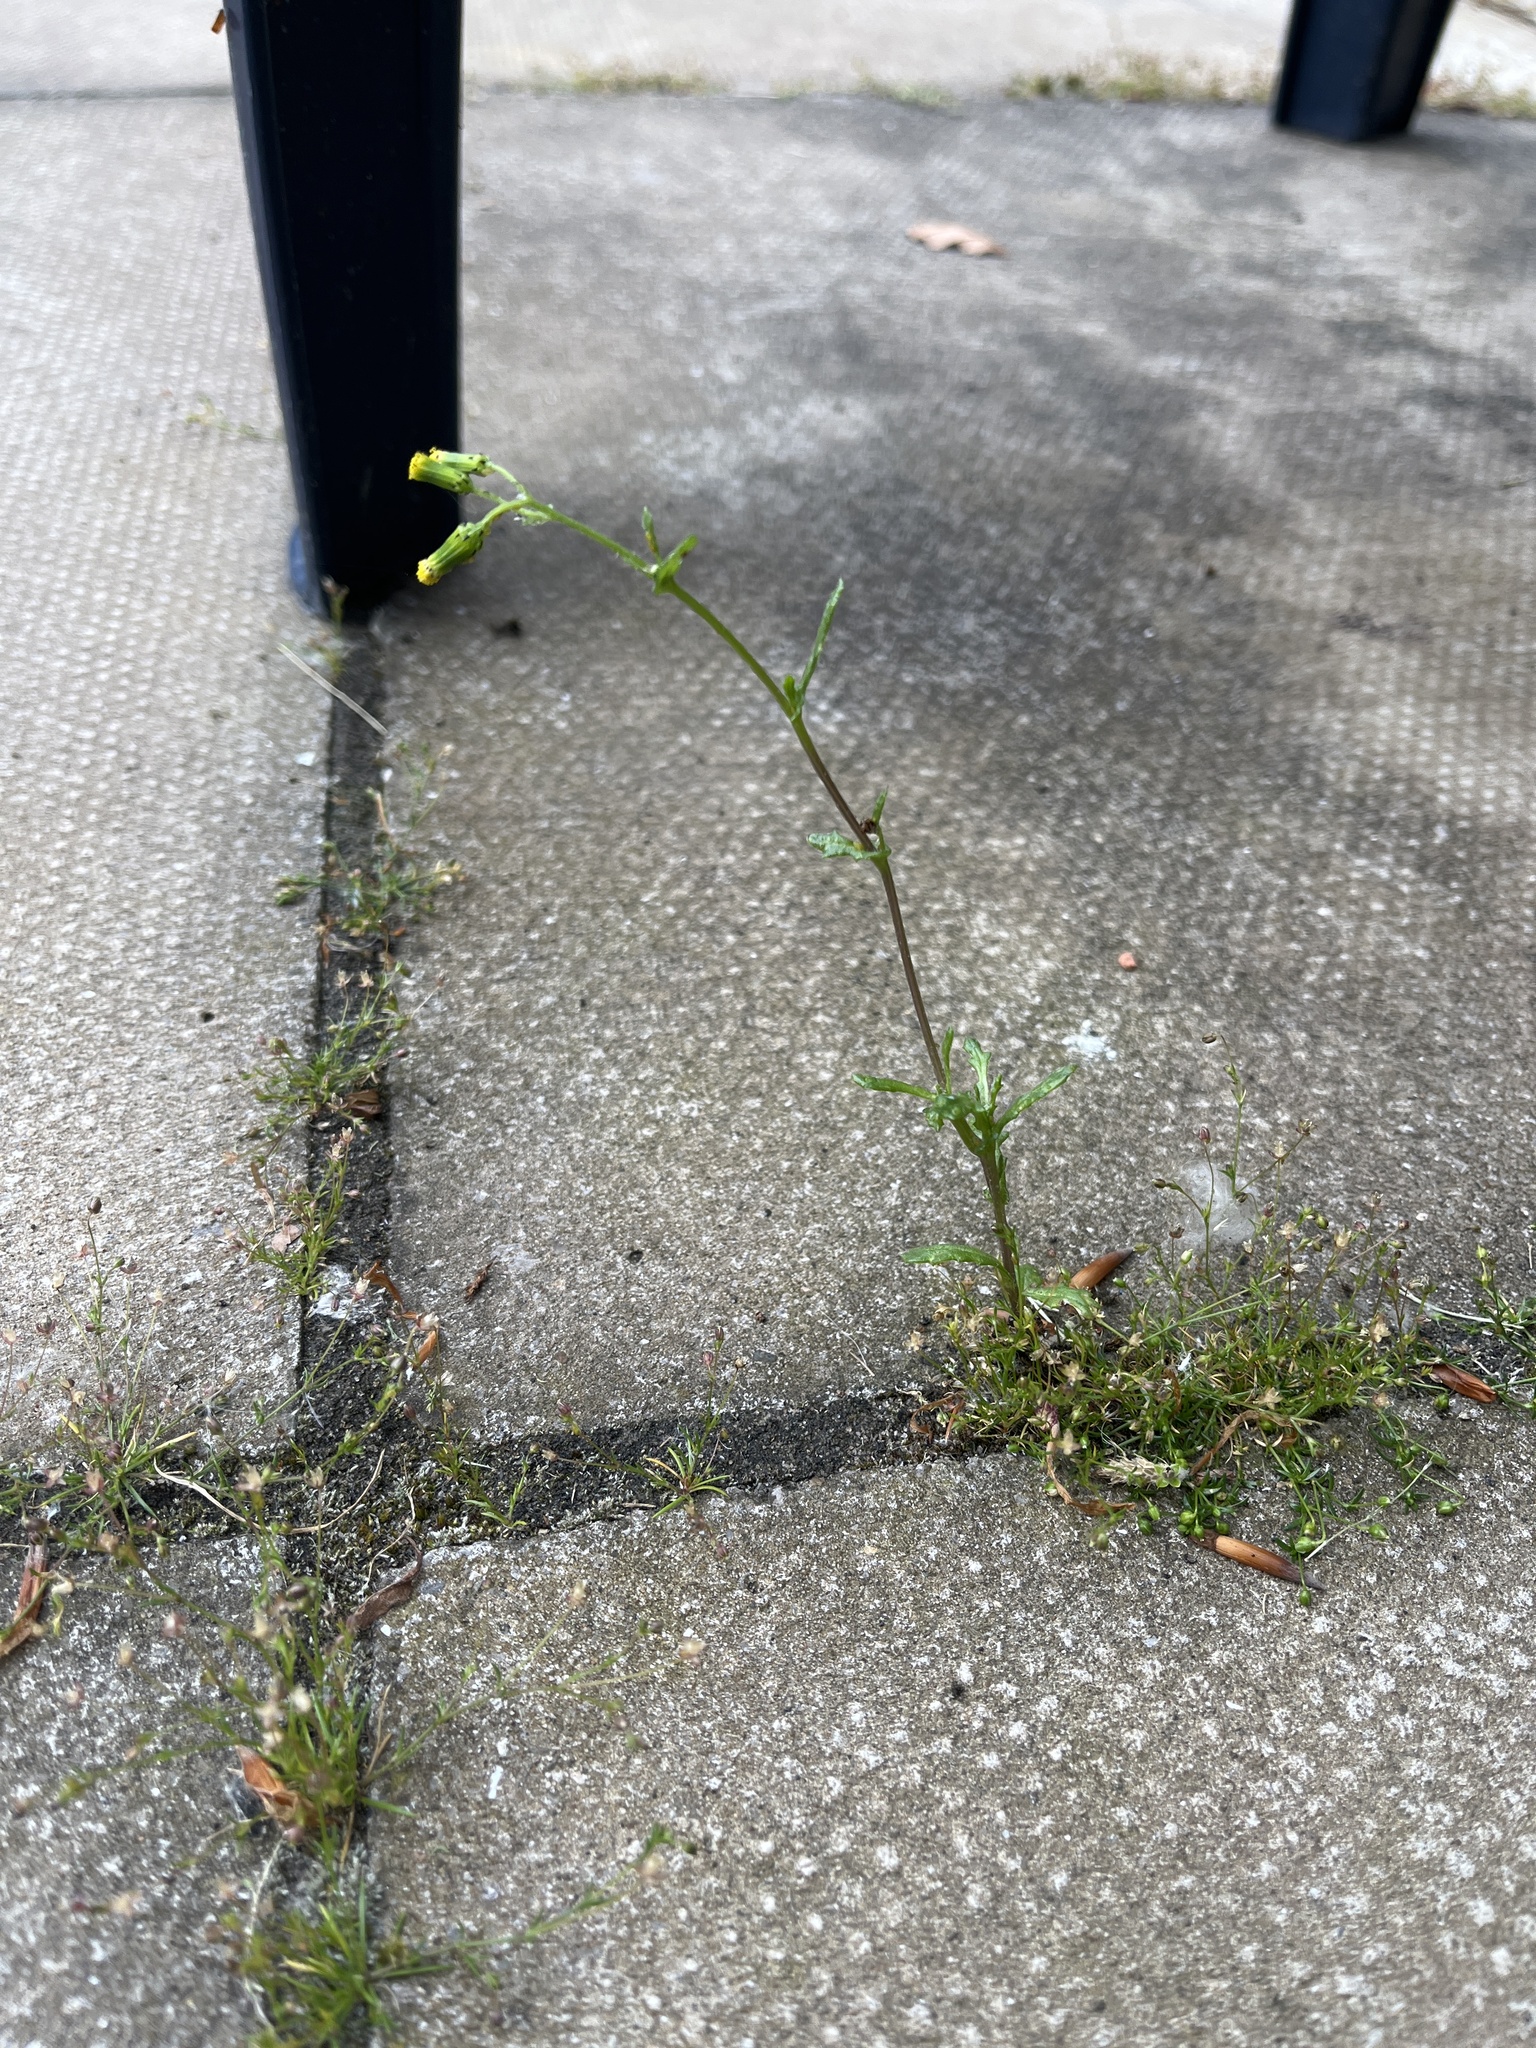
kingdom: Plantae
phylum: Tracheophyta
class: Magnoliopsida
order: Asterales
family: Asteraceae
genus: Senecio
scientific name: Senecio vulgaris
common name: Old-man-in-the-spring
